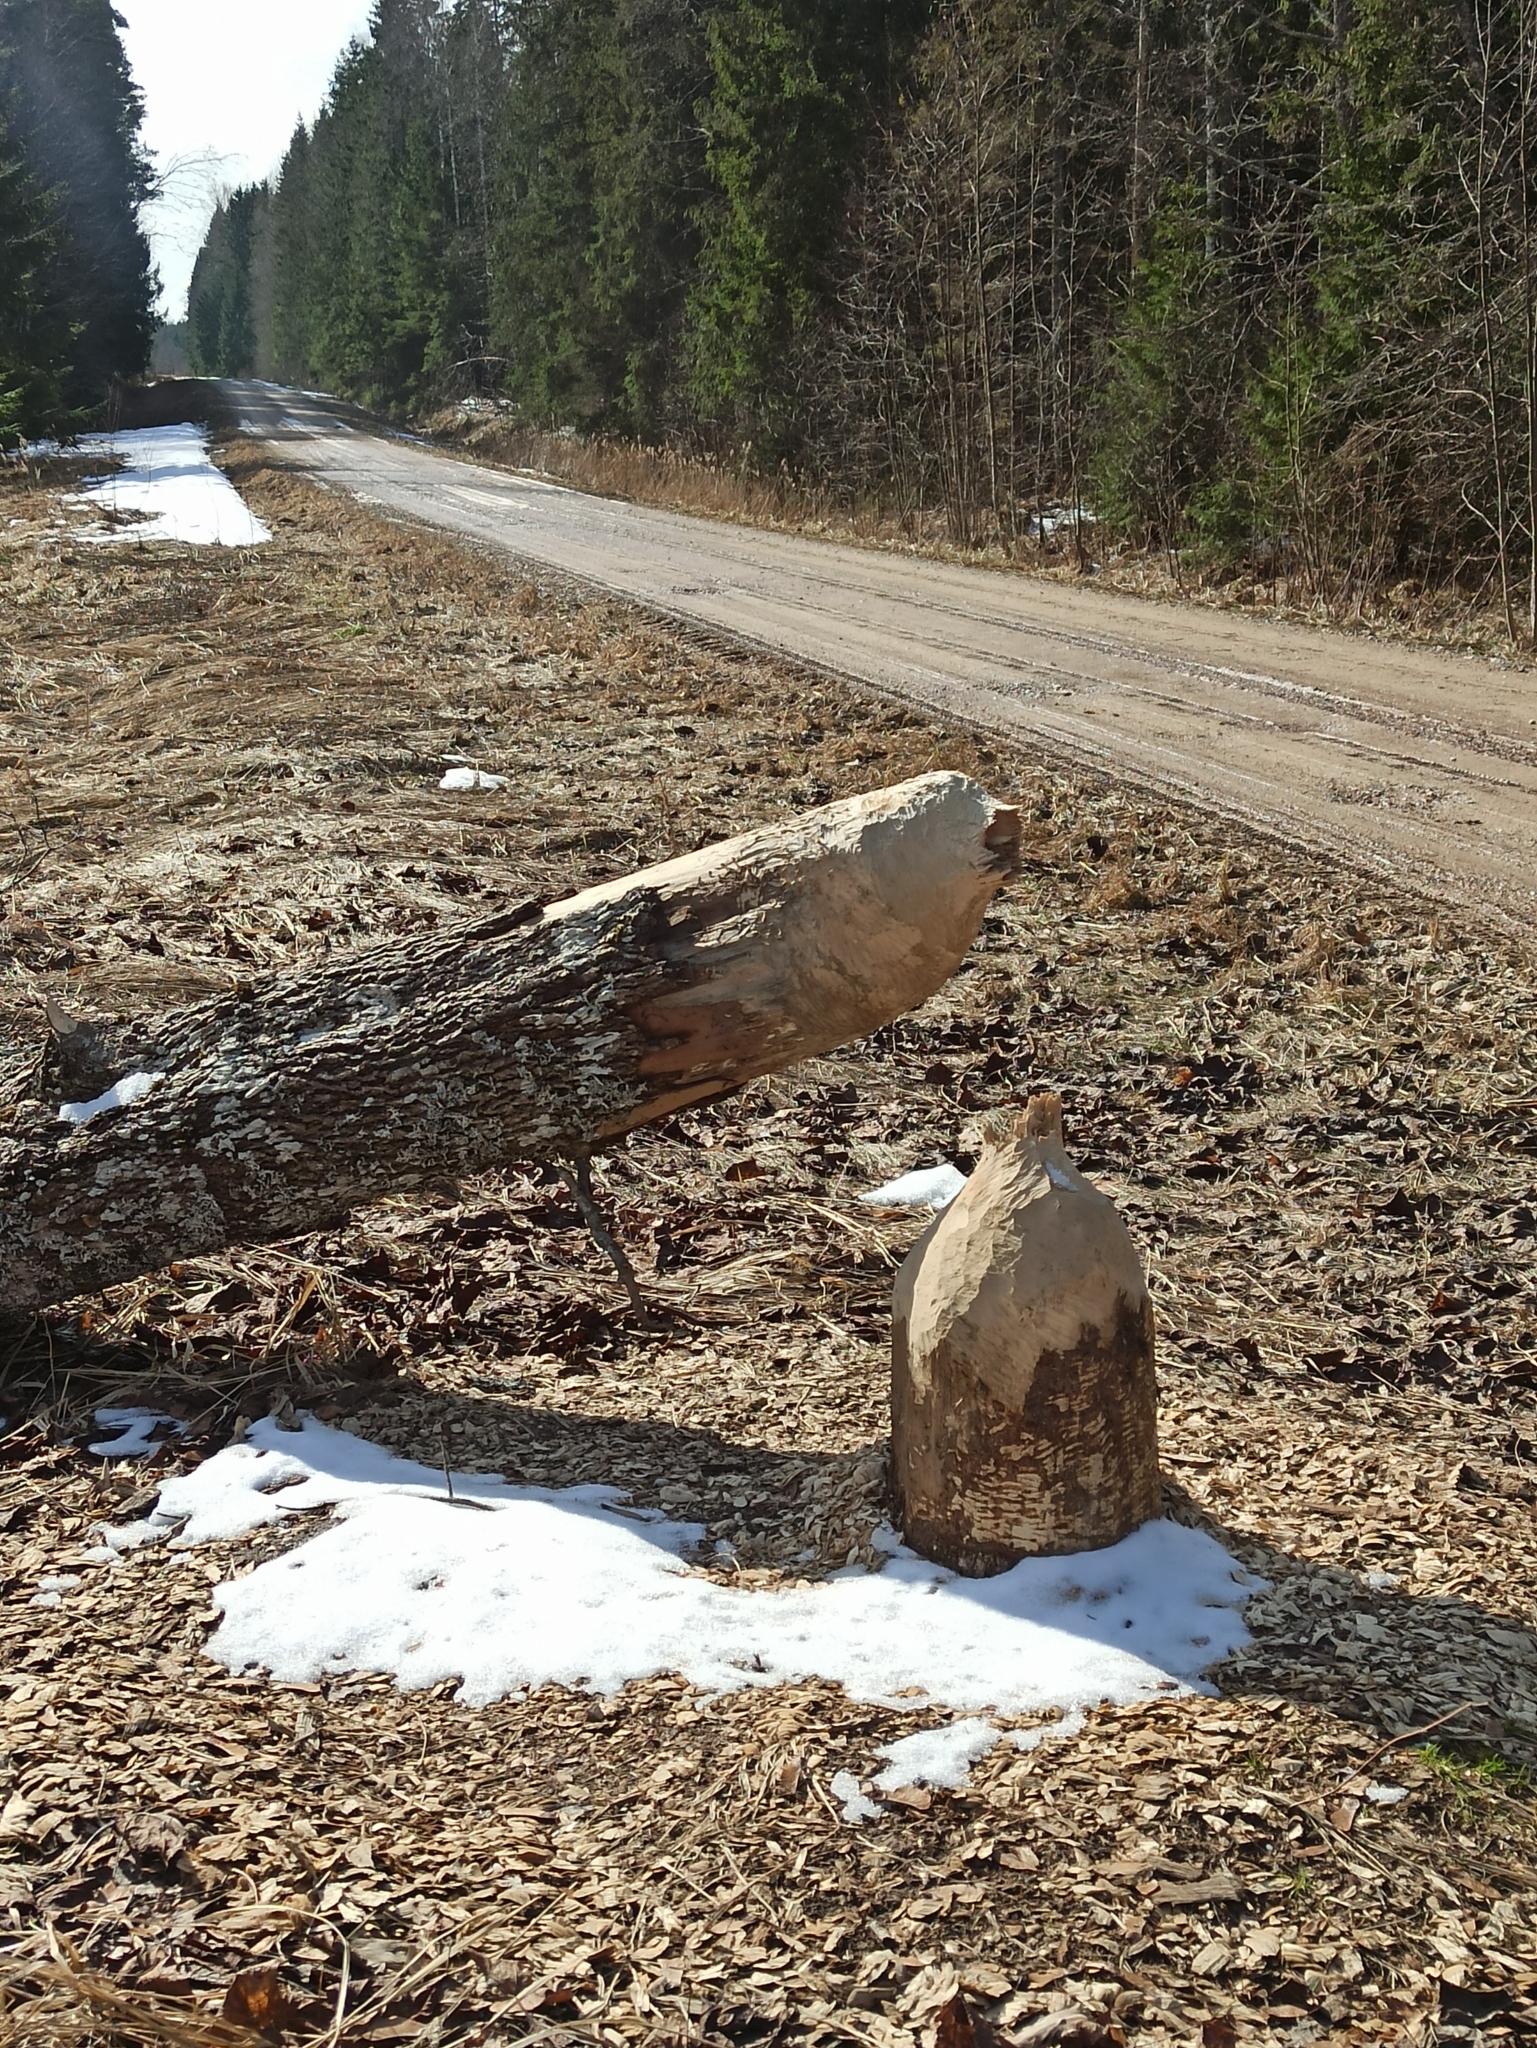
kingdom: Animalia
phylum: Chordata
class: Mammalia
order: Rodentia
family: Castoridae
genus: Castor
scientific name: Castor fiber
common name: Eurasian beaver
